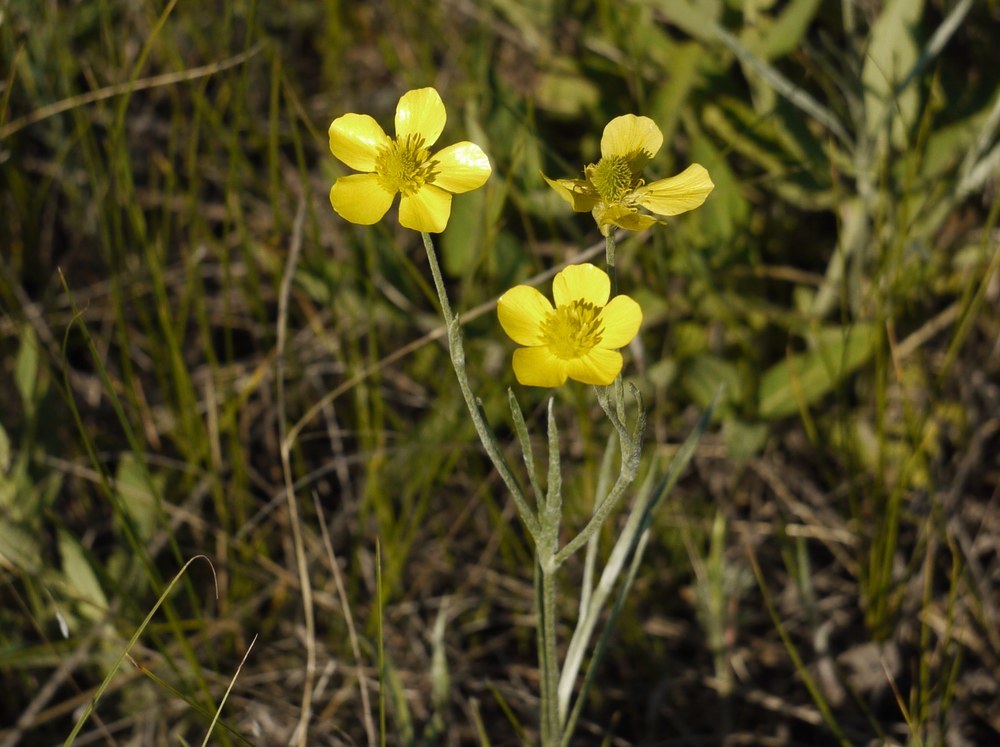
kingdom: Plantae
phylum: Tracheophyta
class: Magnoliopsida
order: Ranunculales
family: Ranunculaceae
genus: Ranunculus
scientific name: Ranunculus illyricus
